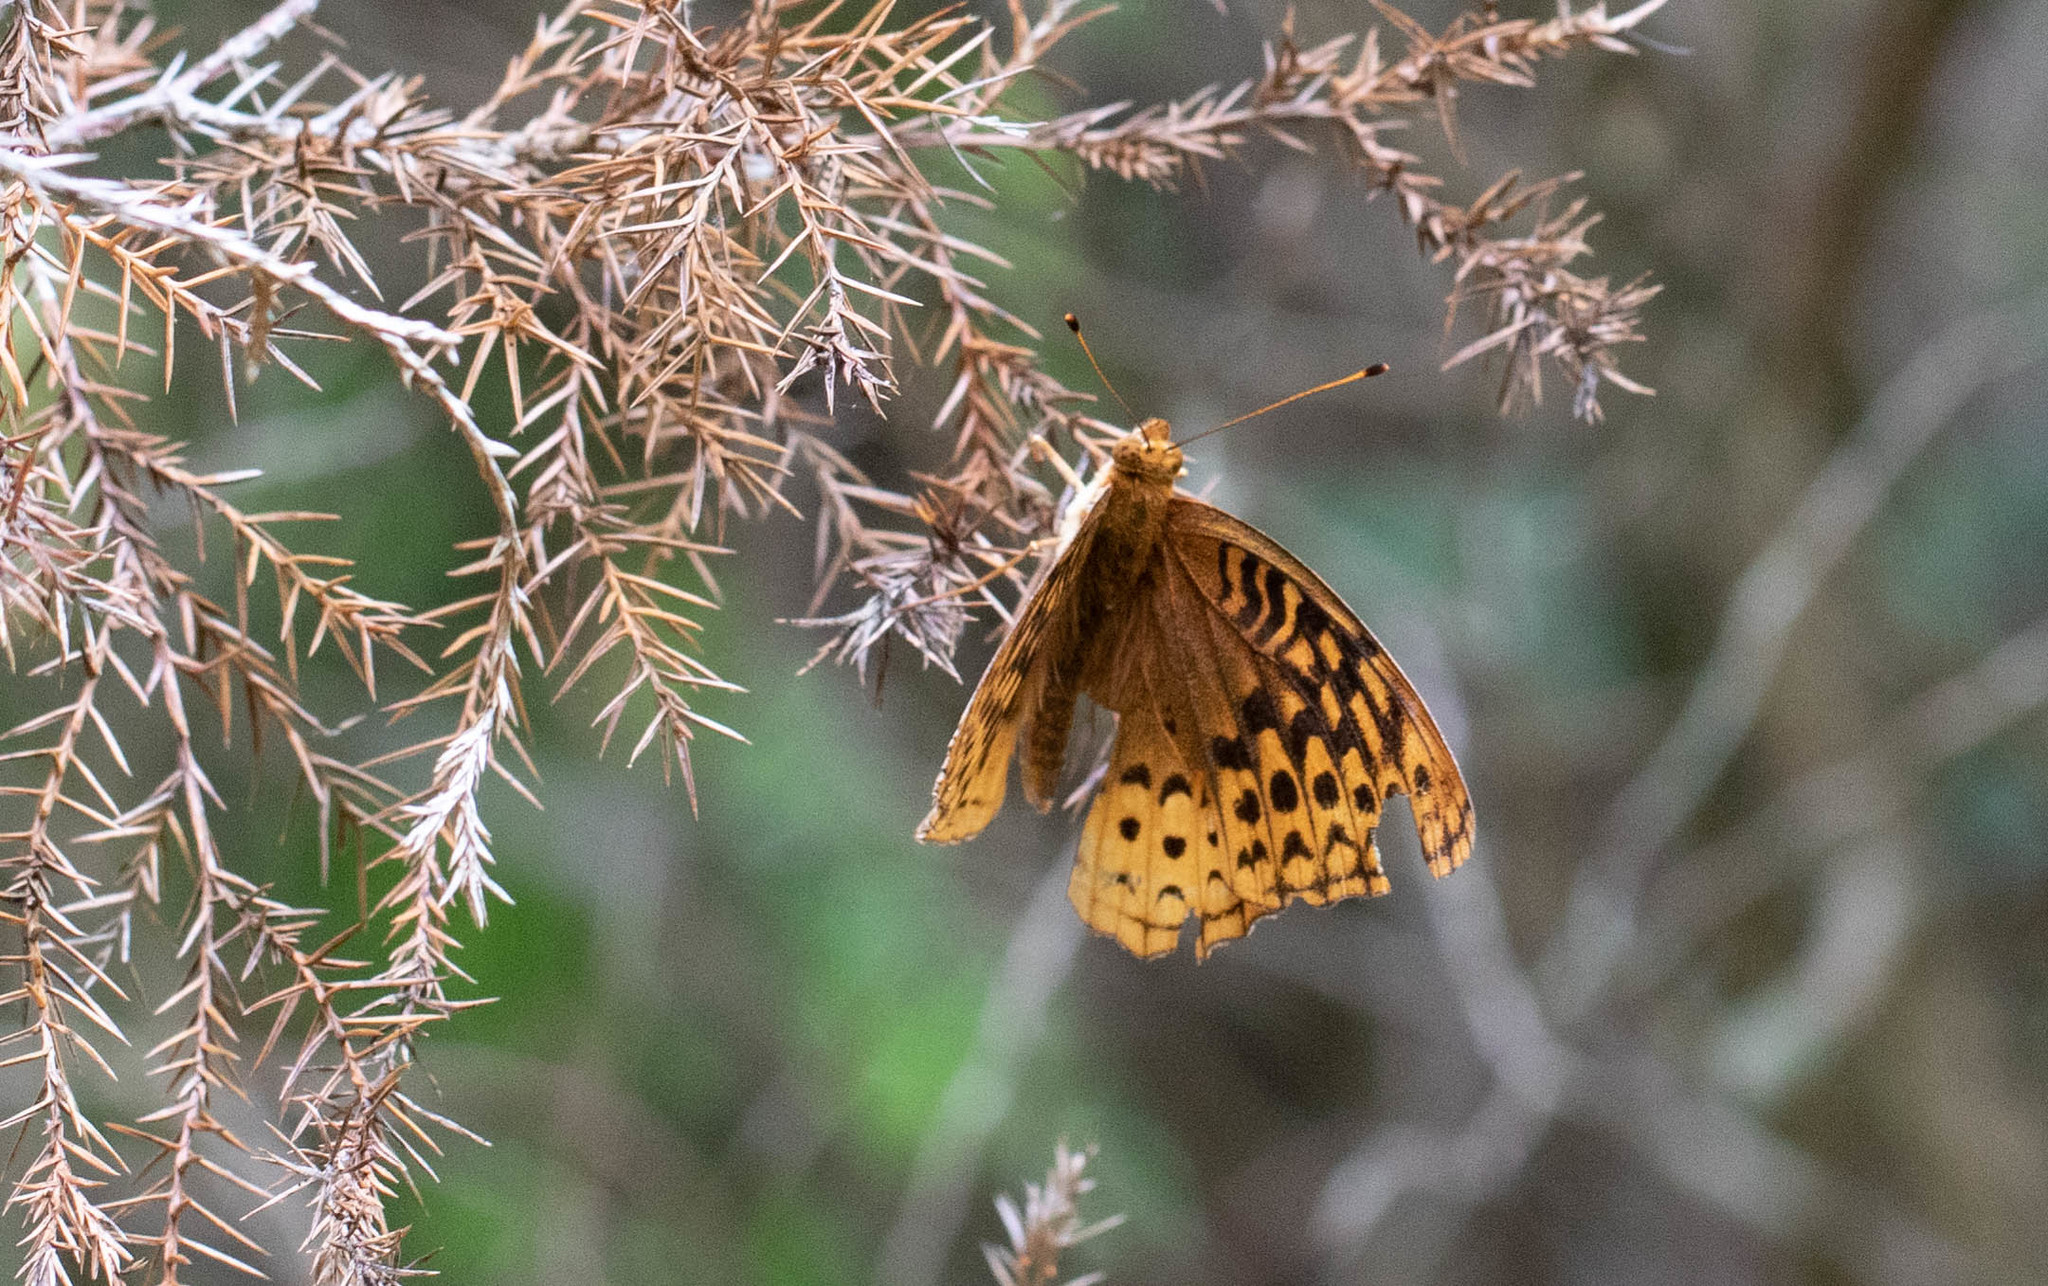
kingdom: Animalia
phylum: Arthropoda
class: Insecta
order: Lepidoptera
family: Nymphalidae
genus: Speyeria
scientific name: Speyeria cybele
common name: Great spangled fritillary
